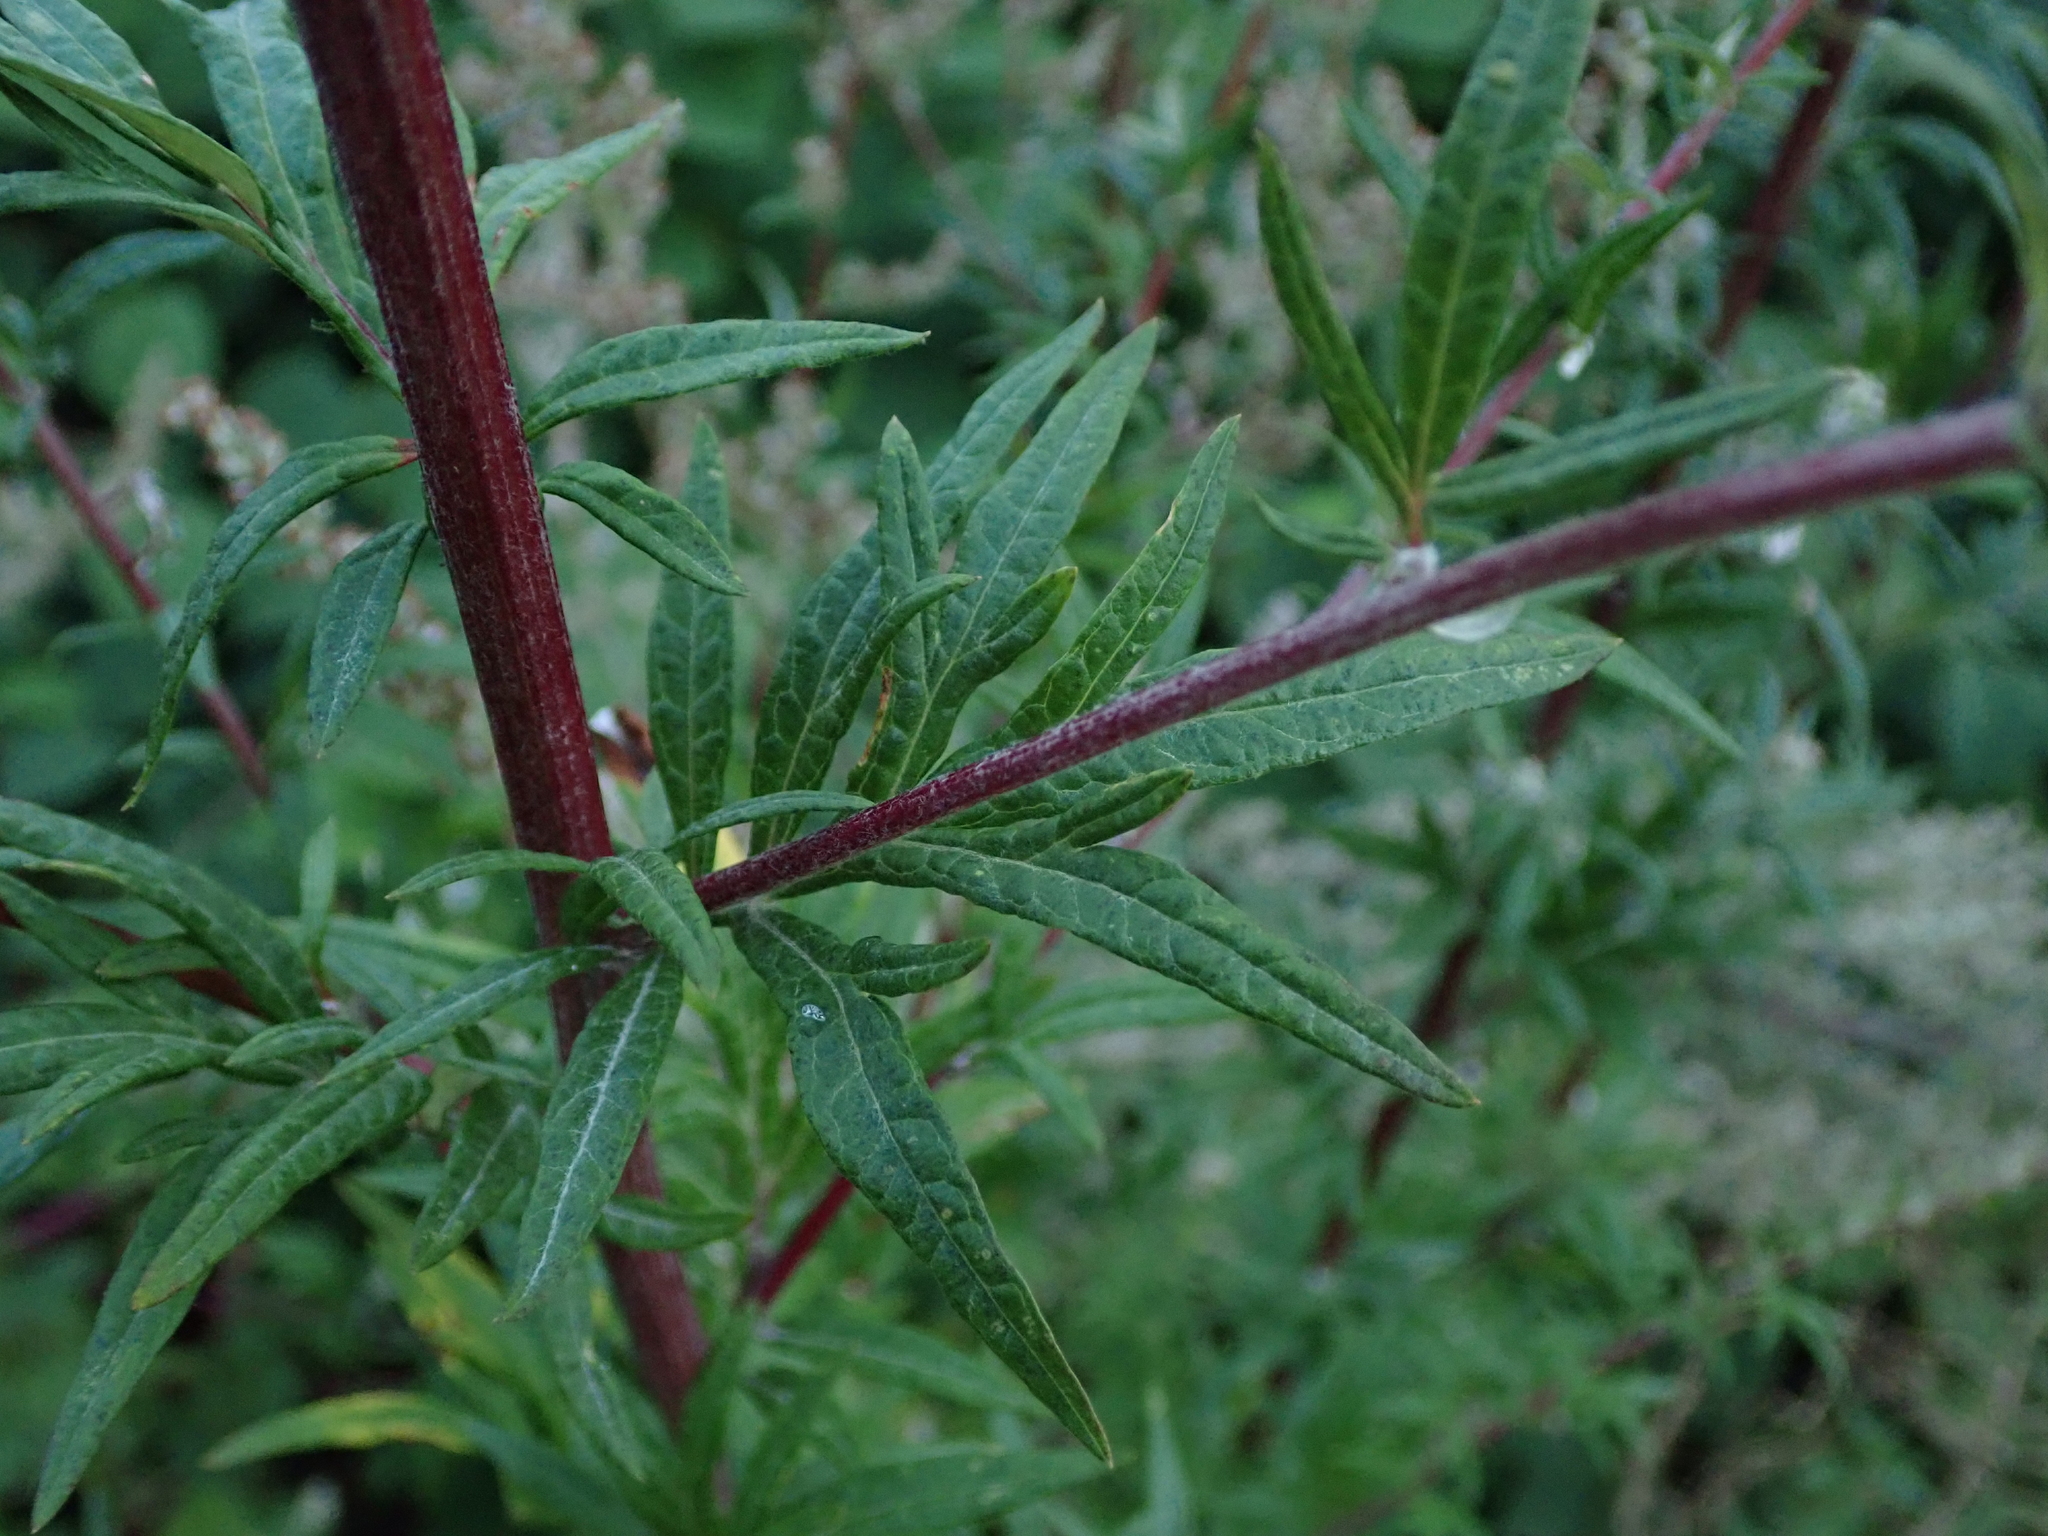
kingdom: Plantae
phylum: Tracheophyta
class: Magnoliopsida
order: Asterales
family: Asteraceae
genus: Artemisia
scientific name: Artemisia vulgaris
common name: Mugwort
